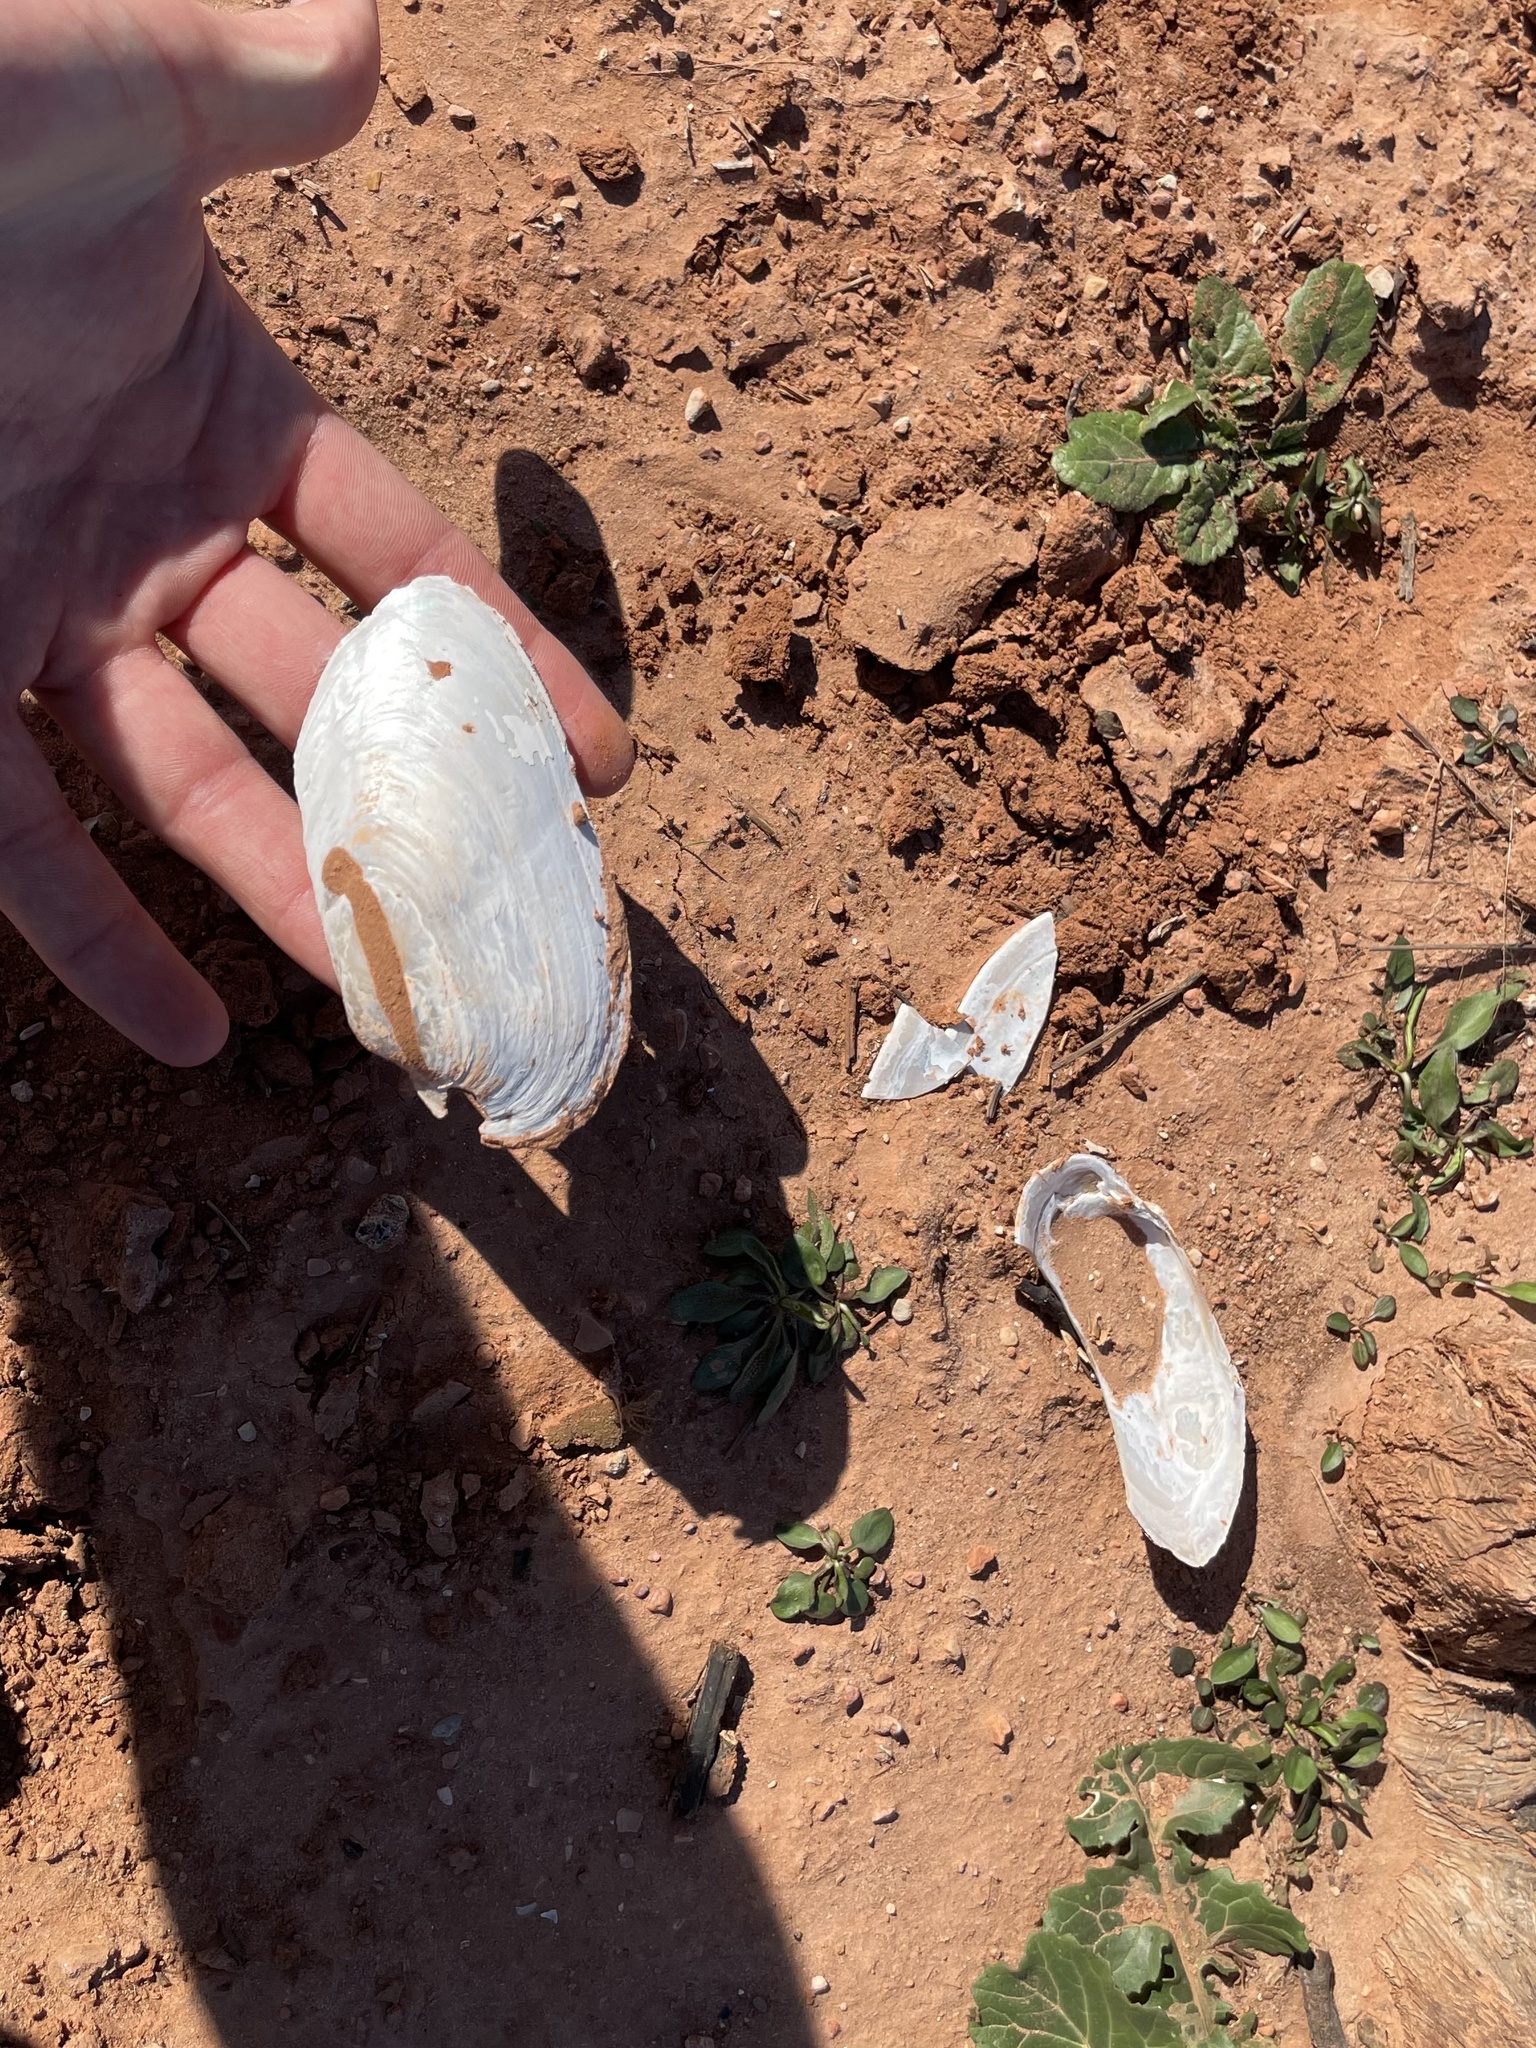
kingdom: Animalia
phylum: Mollusca
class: Bivalvia
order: Unionida
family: Unionidae
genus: Uniomerus
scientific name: Uniomerus tetralasmus
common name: Pondhorn
